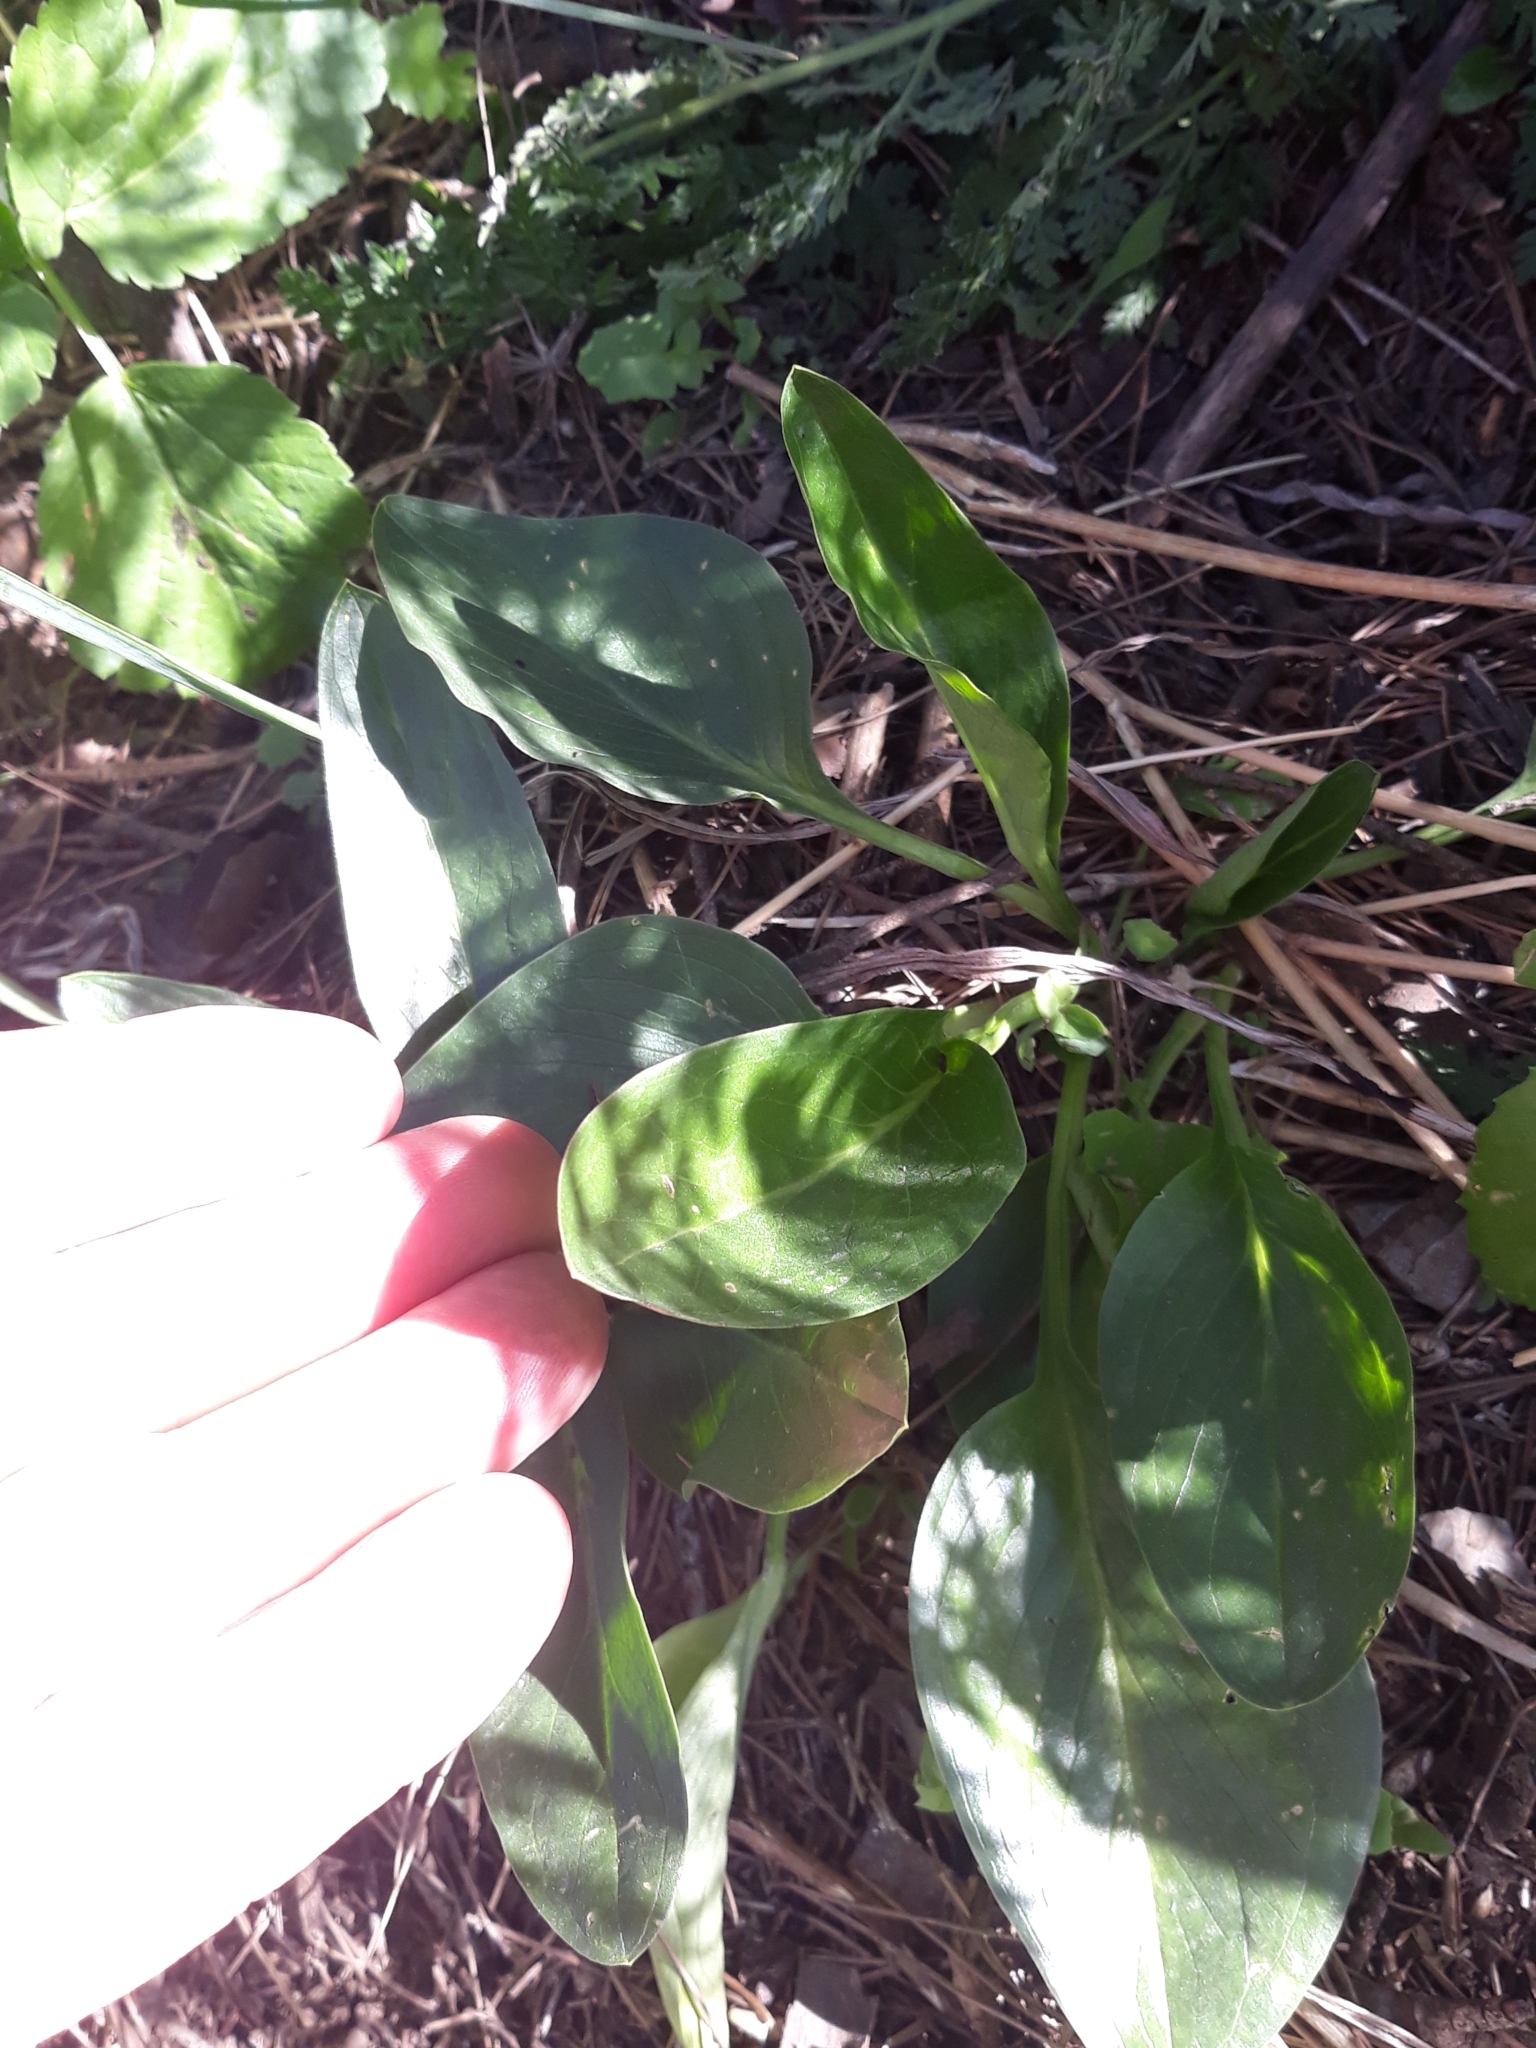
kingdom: Plantae
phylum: Tracheophyta
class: Liliopsida
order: Alismatales
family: Araceae
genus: Biarum
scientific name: Biarum dispar
